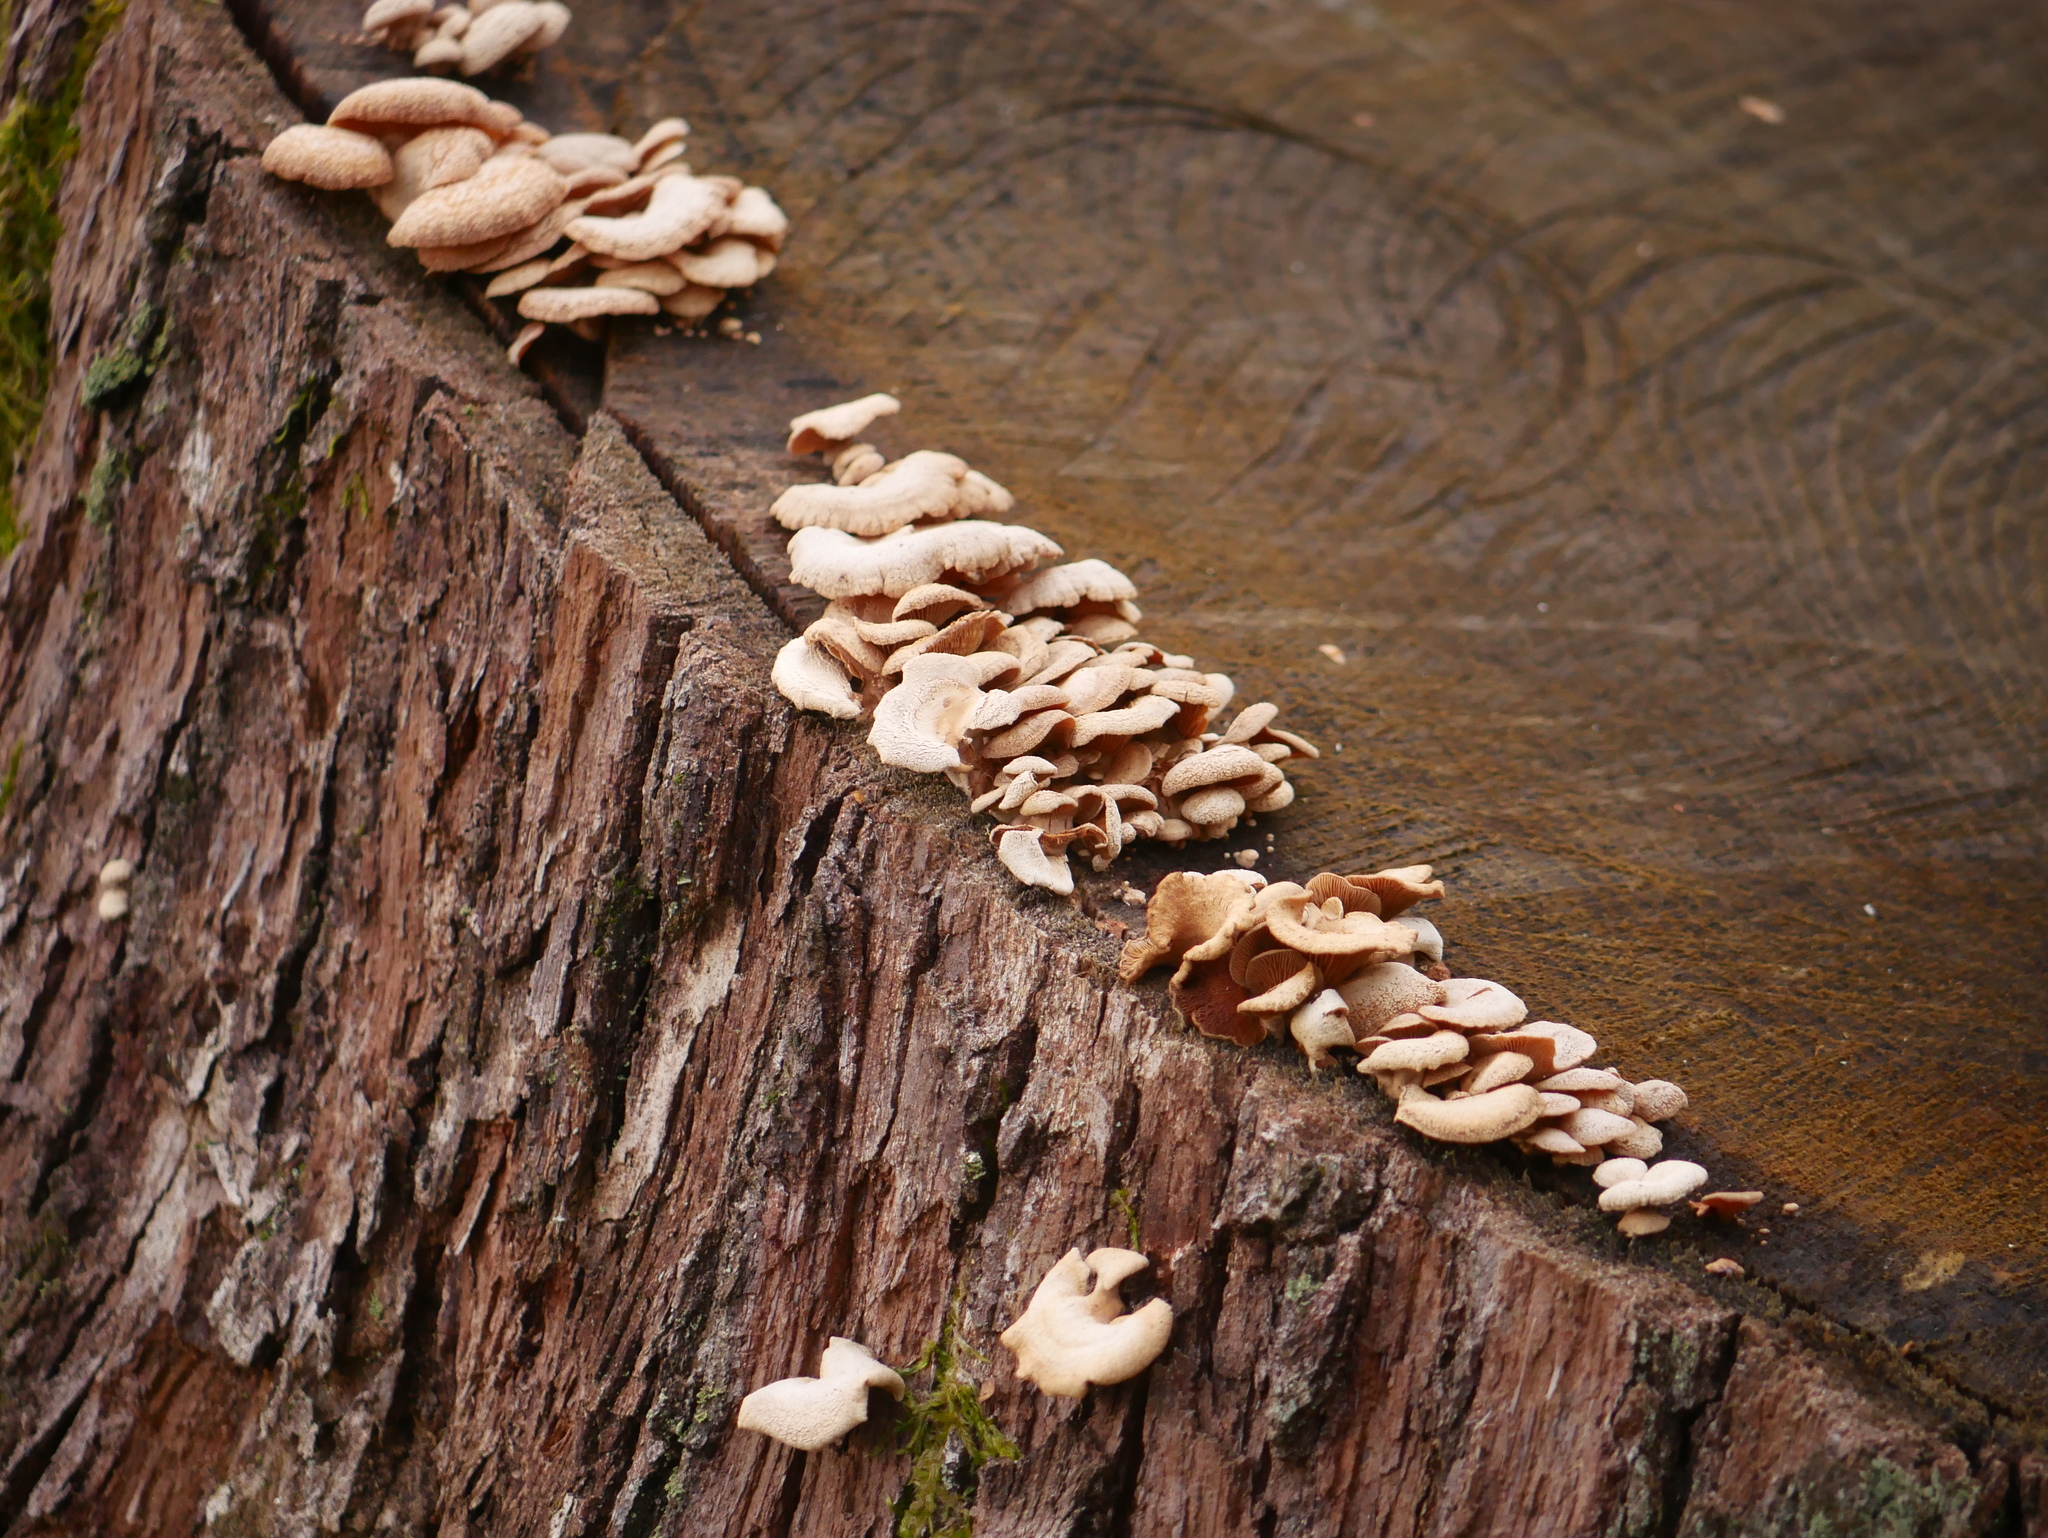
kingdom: Fungi
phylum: Basidiomycota
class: Agaricomycetes
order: Agaricales
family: Mycenaceae
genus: Panellus
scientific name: Panellus stipticus
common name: Bitter oysterling
